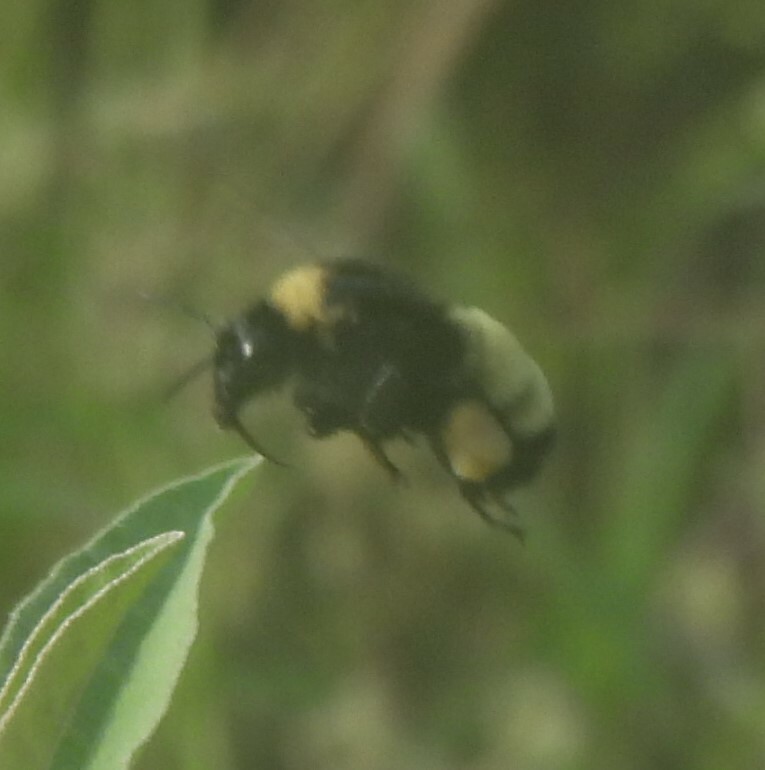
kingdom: Animalia
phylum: Arthropoda
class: Insecta
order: Hymenoptera
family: Apidae
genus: Bombus
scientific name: Bombus pensylvanicus
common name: Bumble bee
